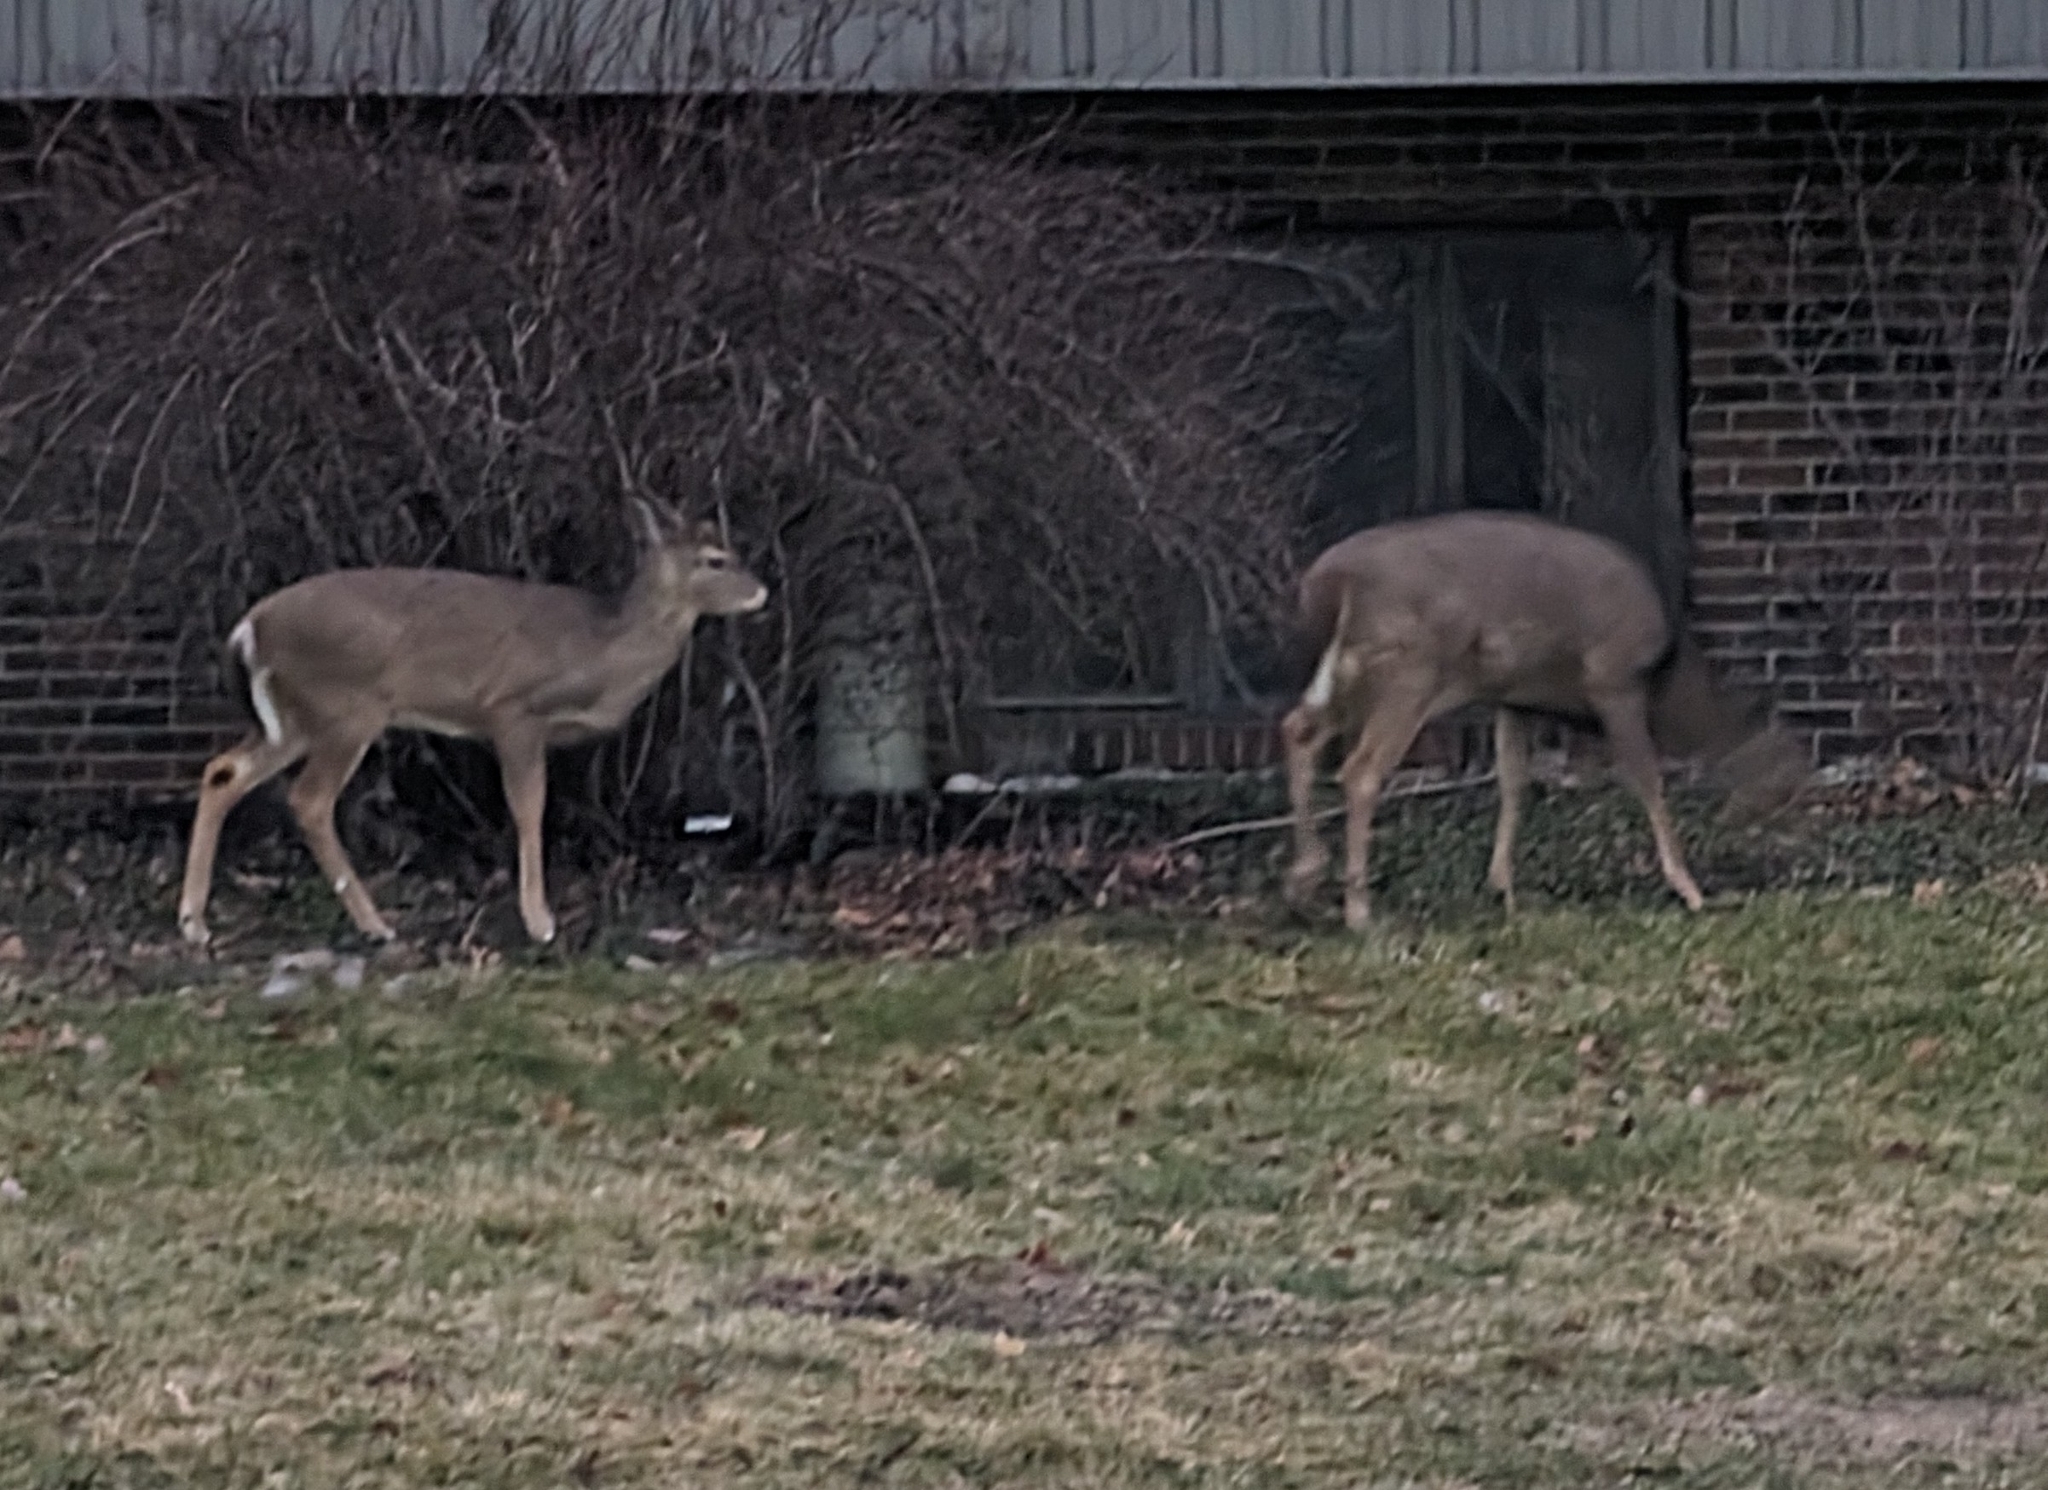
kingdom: Animalia
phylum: Chordata
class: Mammalia
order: Artiodactyla
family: Cervidae
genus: Odocoileus
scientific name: Odocoileus virginianus
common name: White-tailed deer
